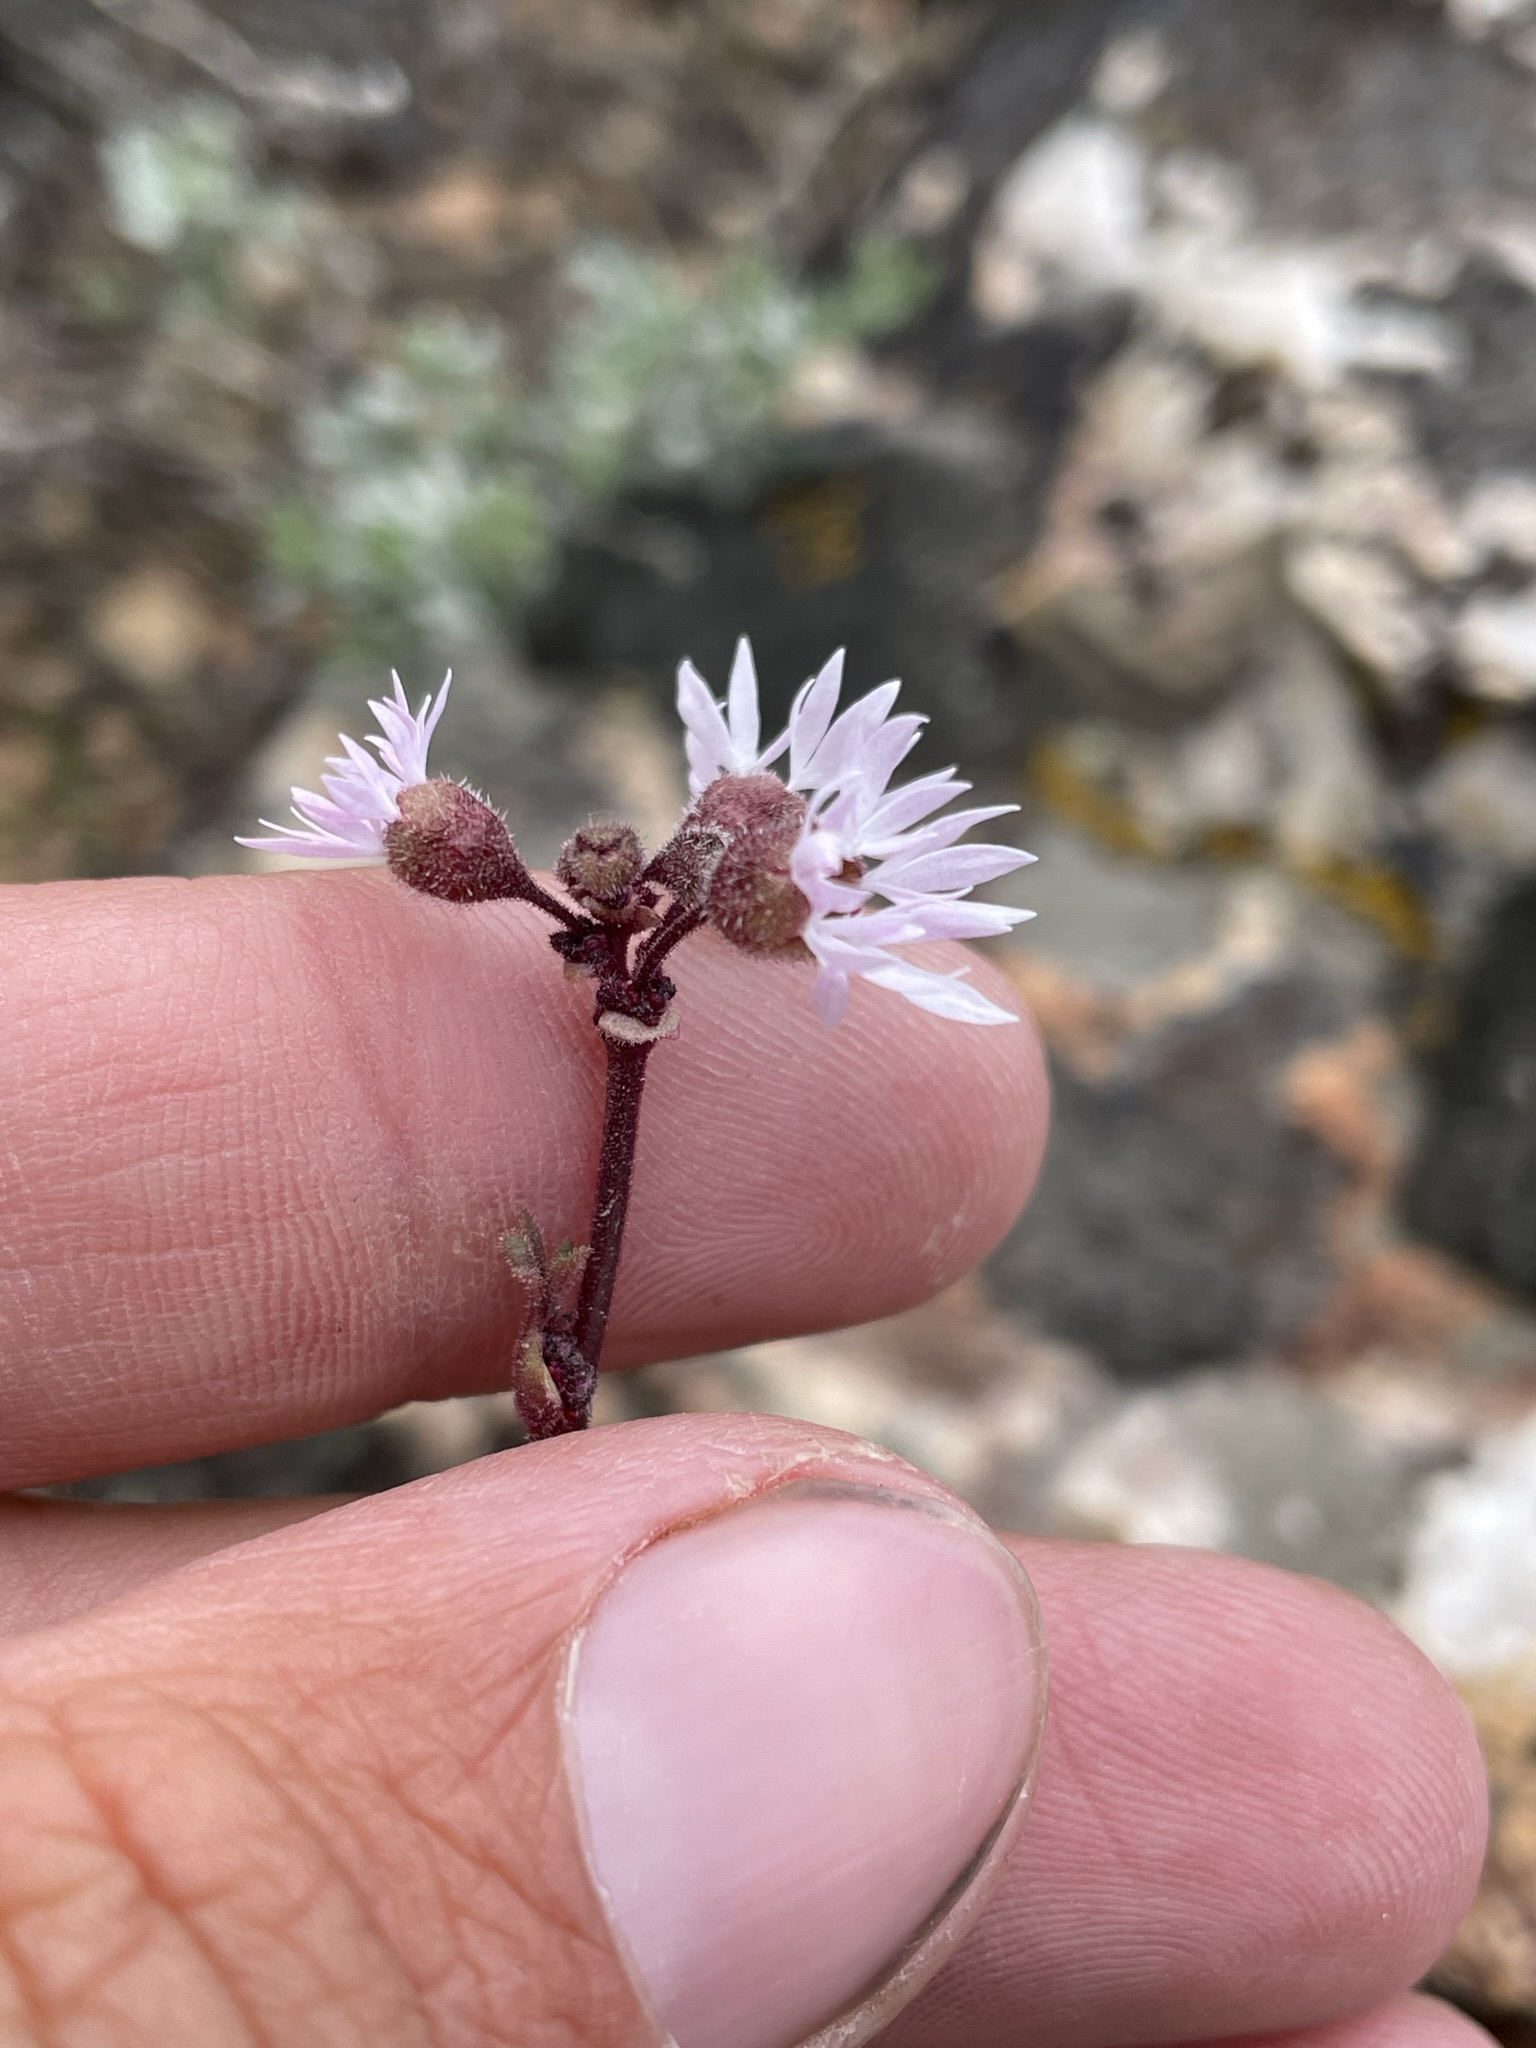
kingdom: Plantae
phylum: Tracheophyta
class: Magnoliopsida
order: Saxifragales
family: Saxifragaceae
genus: Lithophragma
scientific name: Lithophragma glabrum
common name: Bulbous prairie-star
